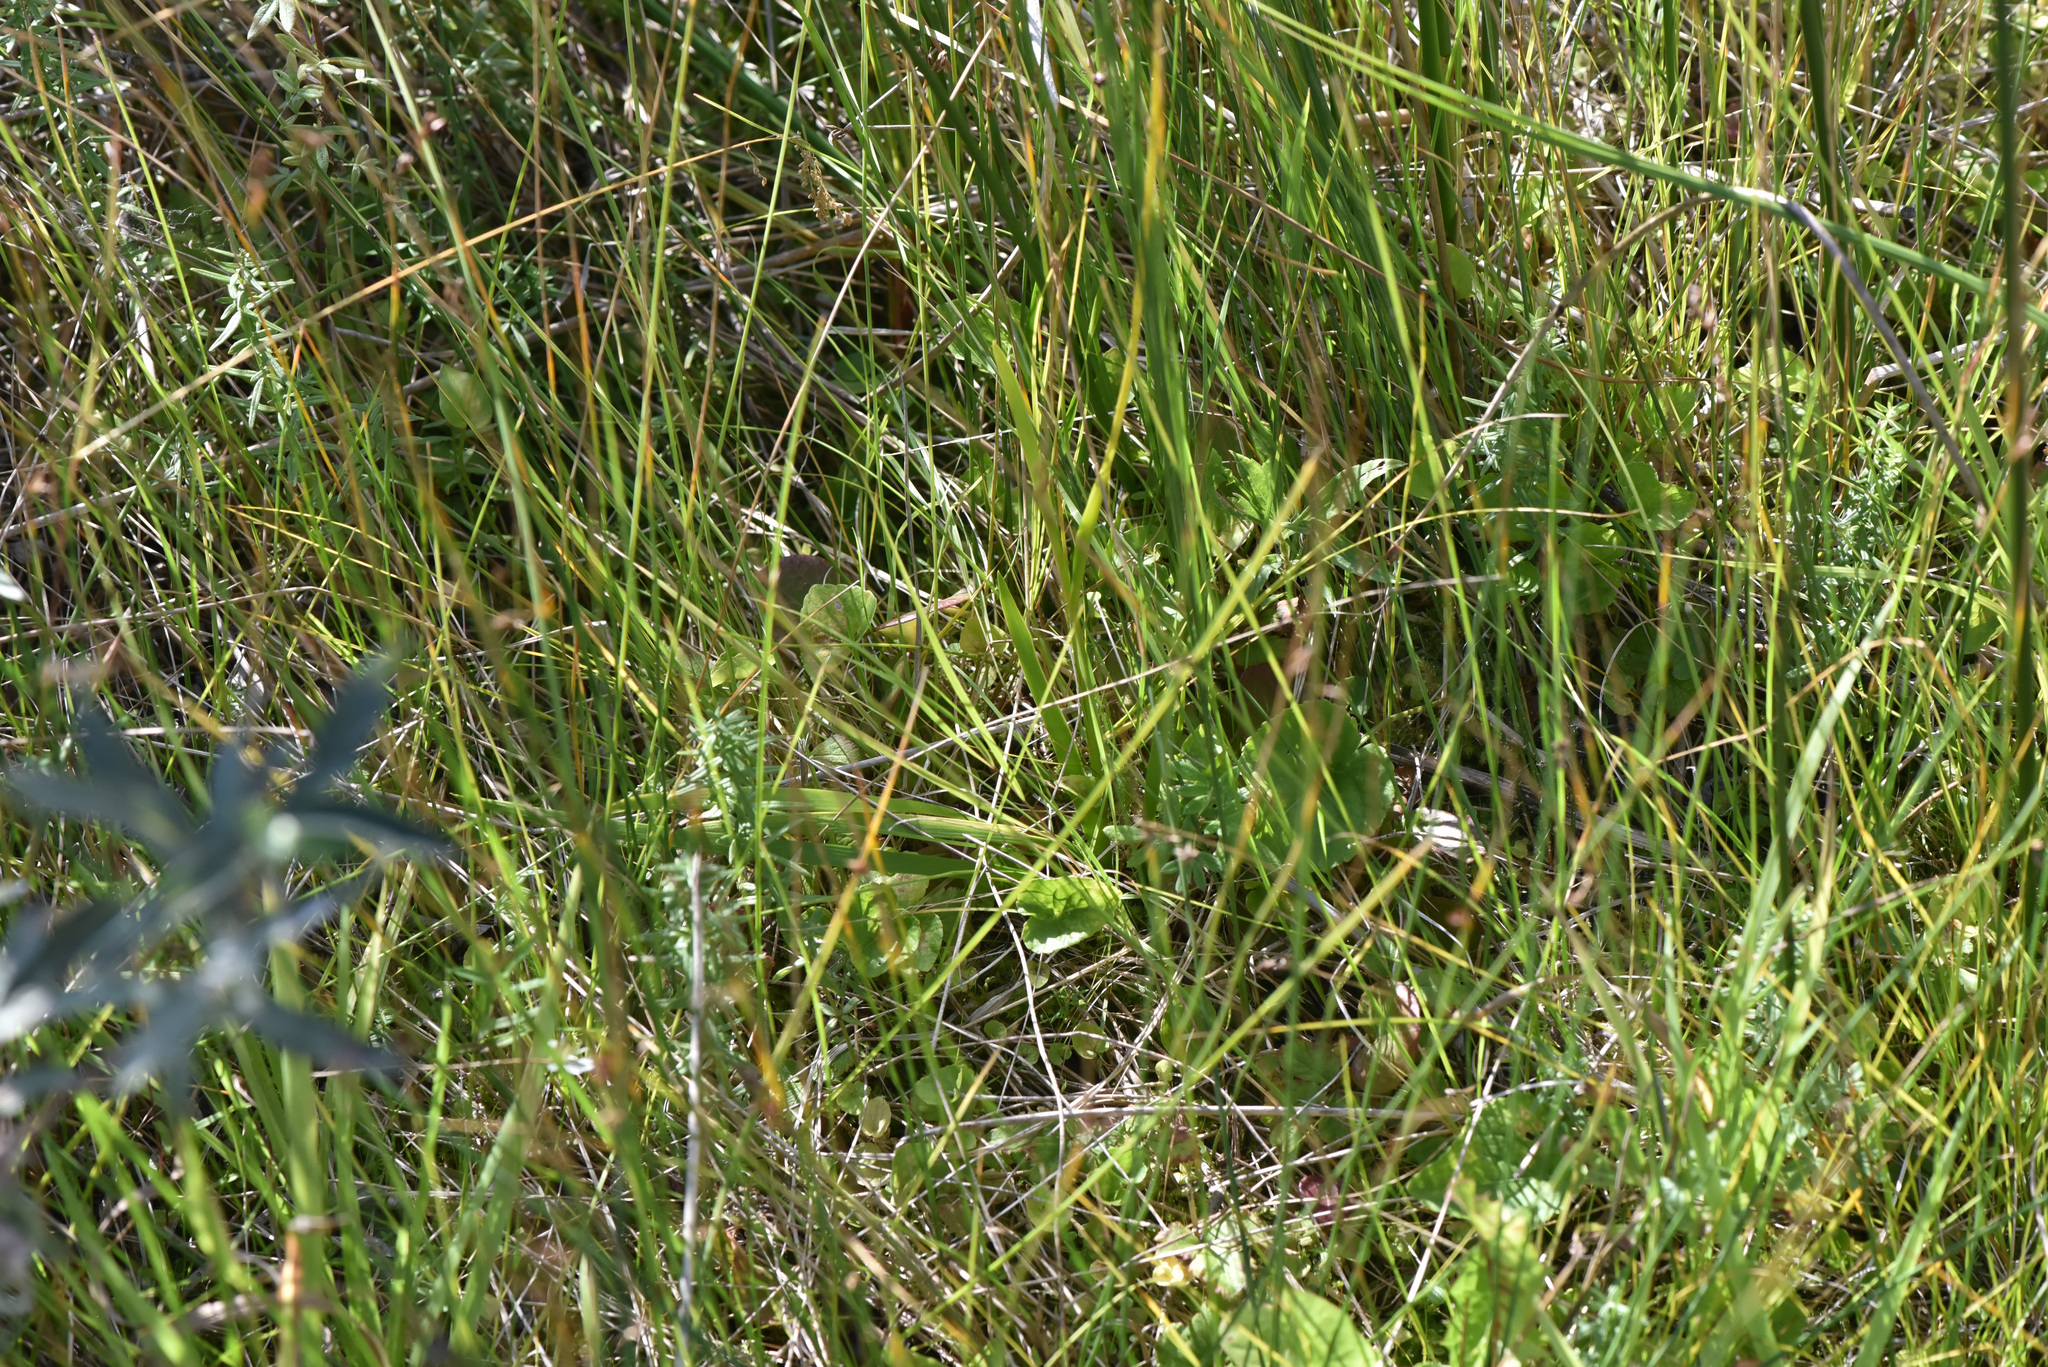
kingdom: Plantae
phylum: Tracheophyta
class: Liliopsida
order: Alismatales
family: Tofieldiaceae
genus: Triantha
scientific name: Triantha glutinosa
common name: Glutinous tofieldia
